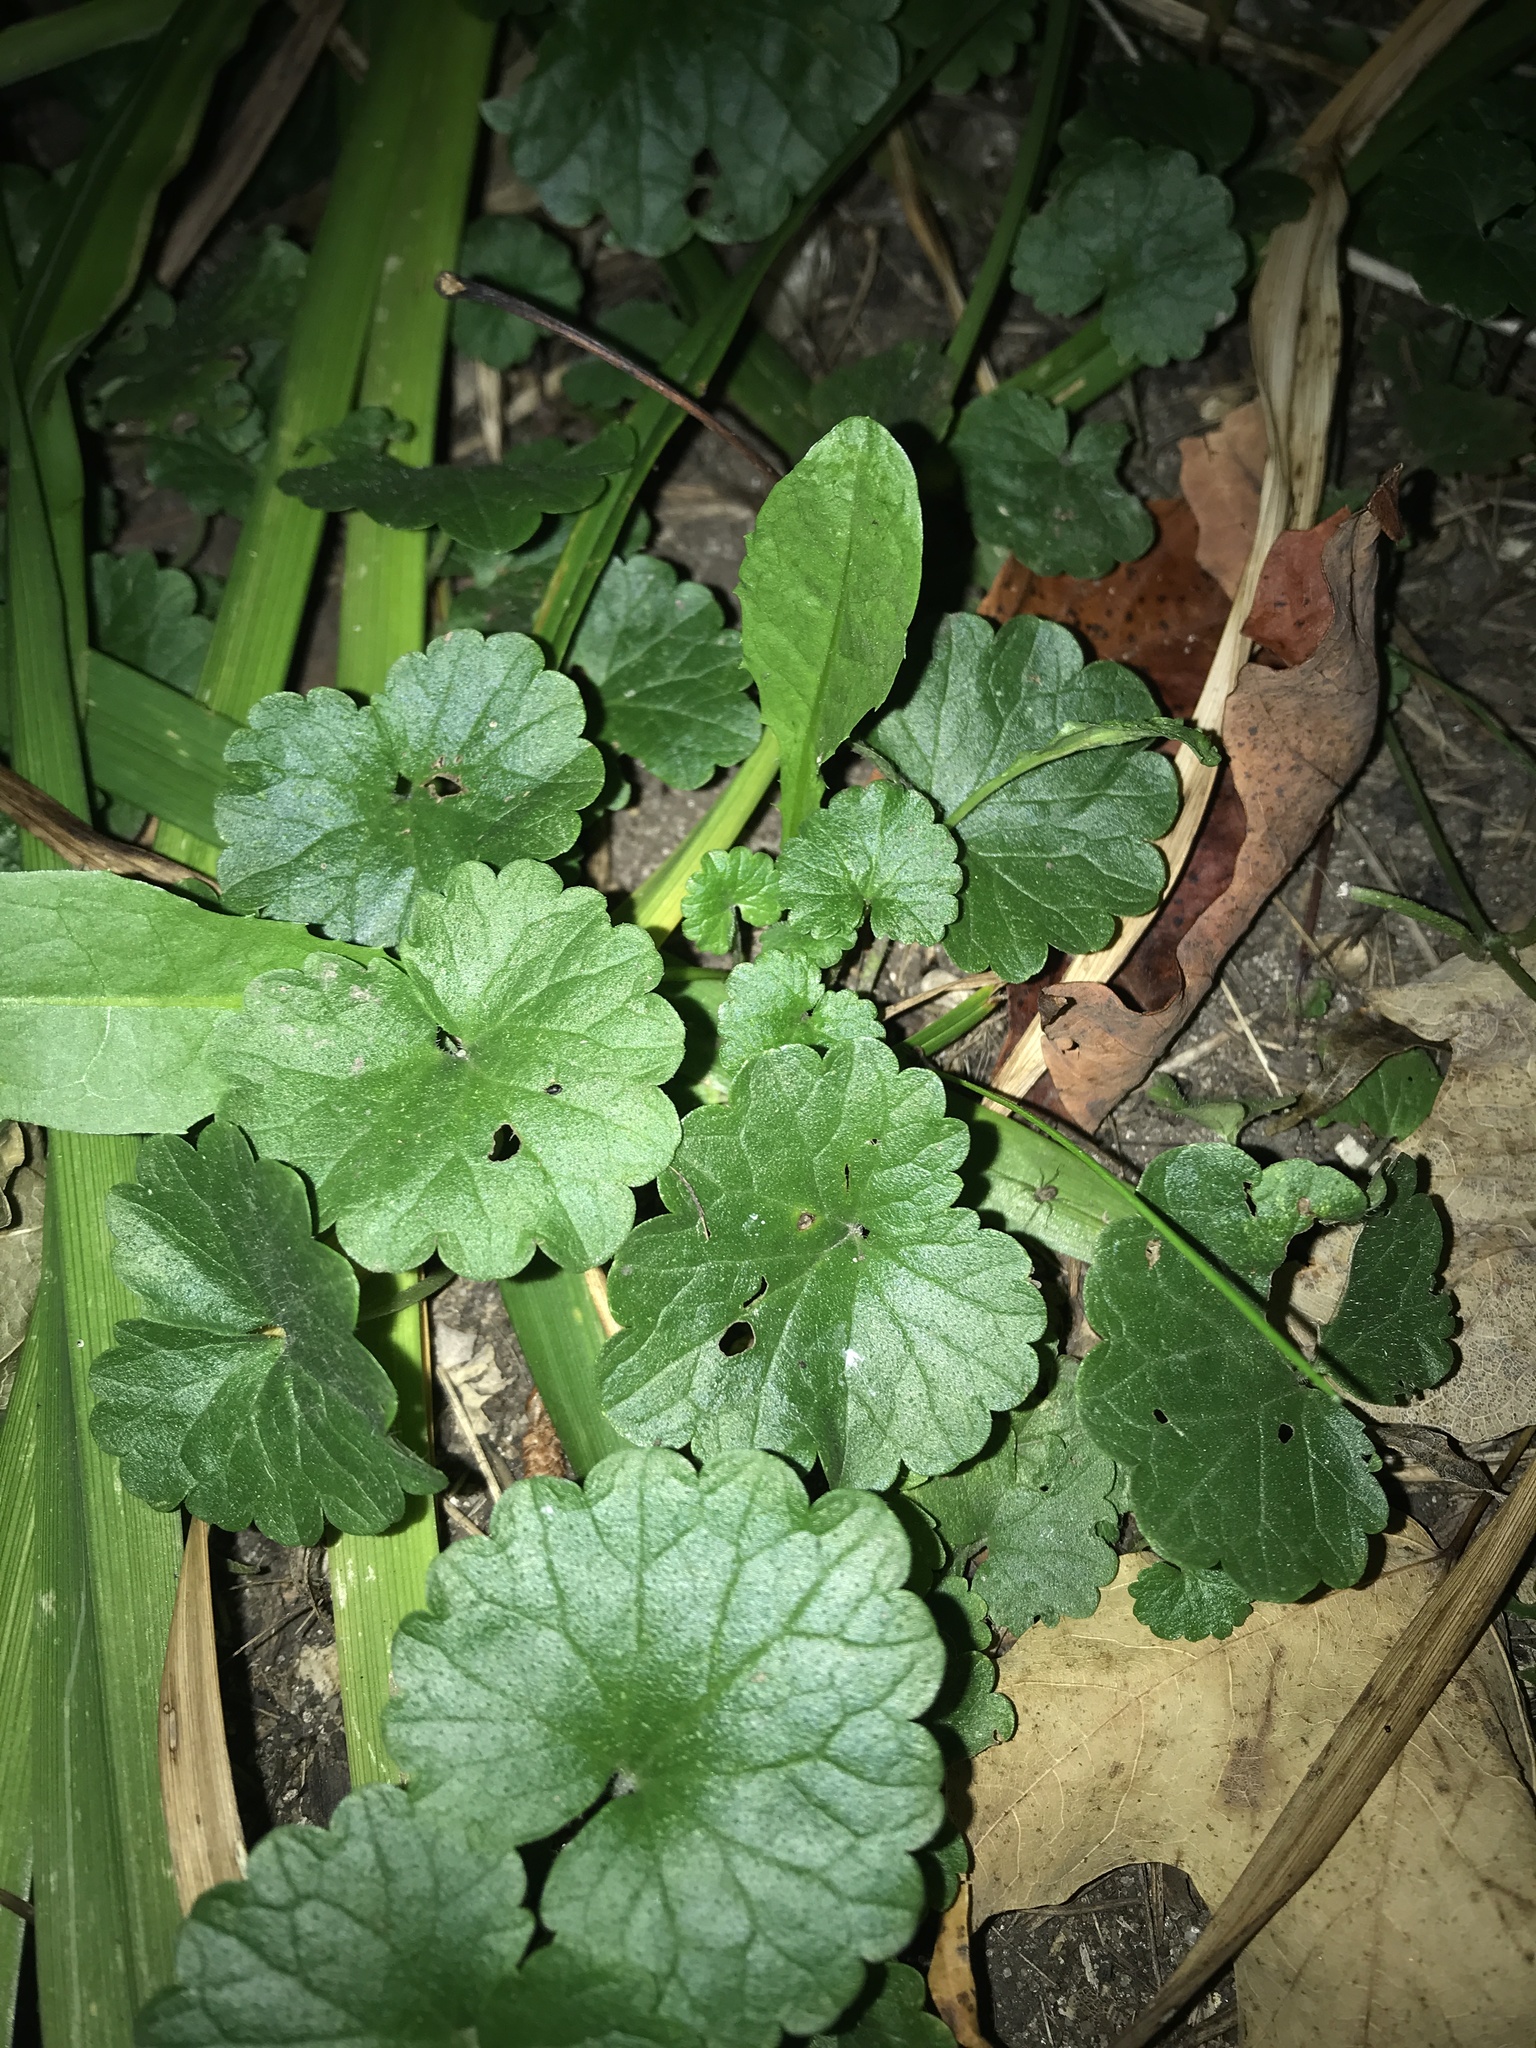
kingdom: Plantae
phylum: Tracheophyta
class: Magnoliopsida
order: Lamiales
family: Lamiaceae
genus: Glechoma
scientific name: Glechoma hederacea
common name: Ground ivy
